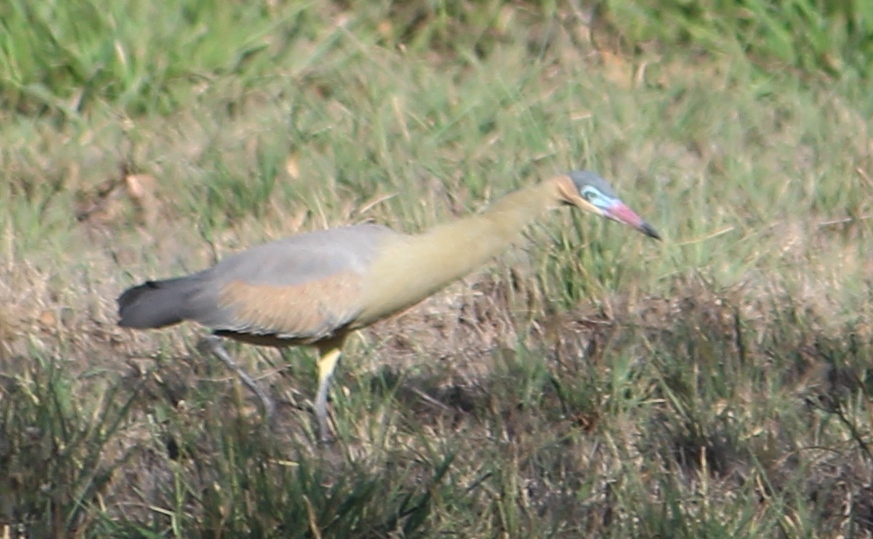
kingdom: Animalia
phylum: Chordata
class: Aves
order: Pelecaniformes
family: Ardeidae
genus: Syrigma
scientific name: Syrigma sibilatrix
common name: Whistling heron
